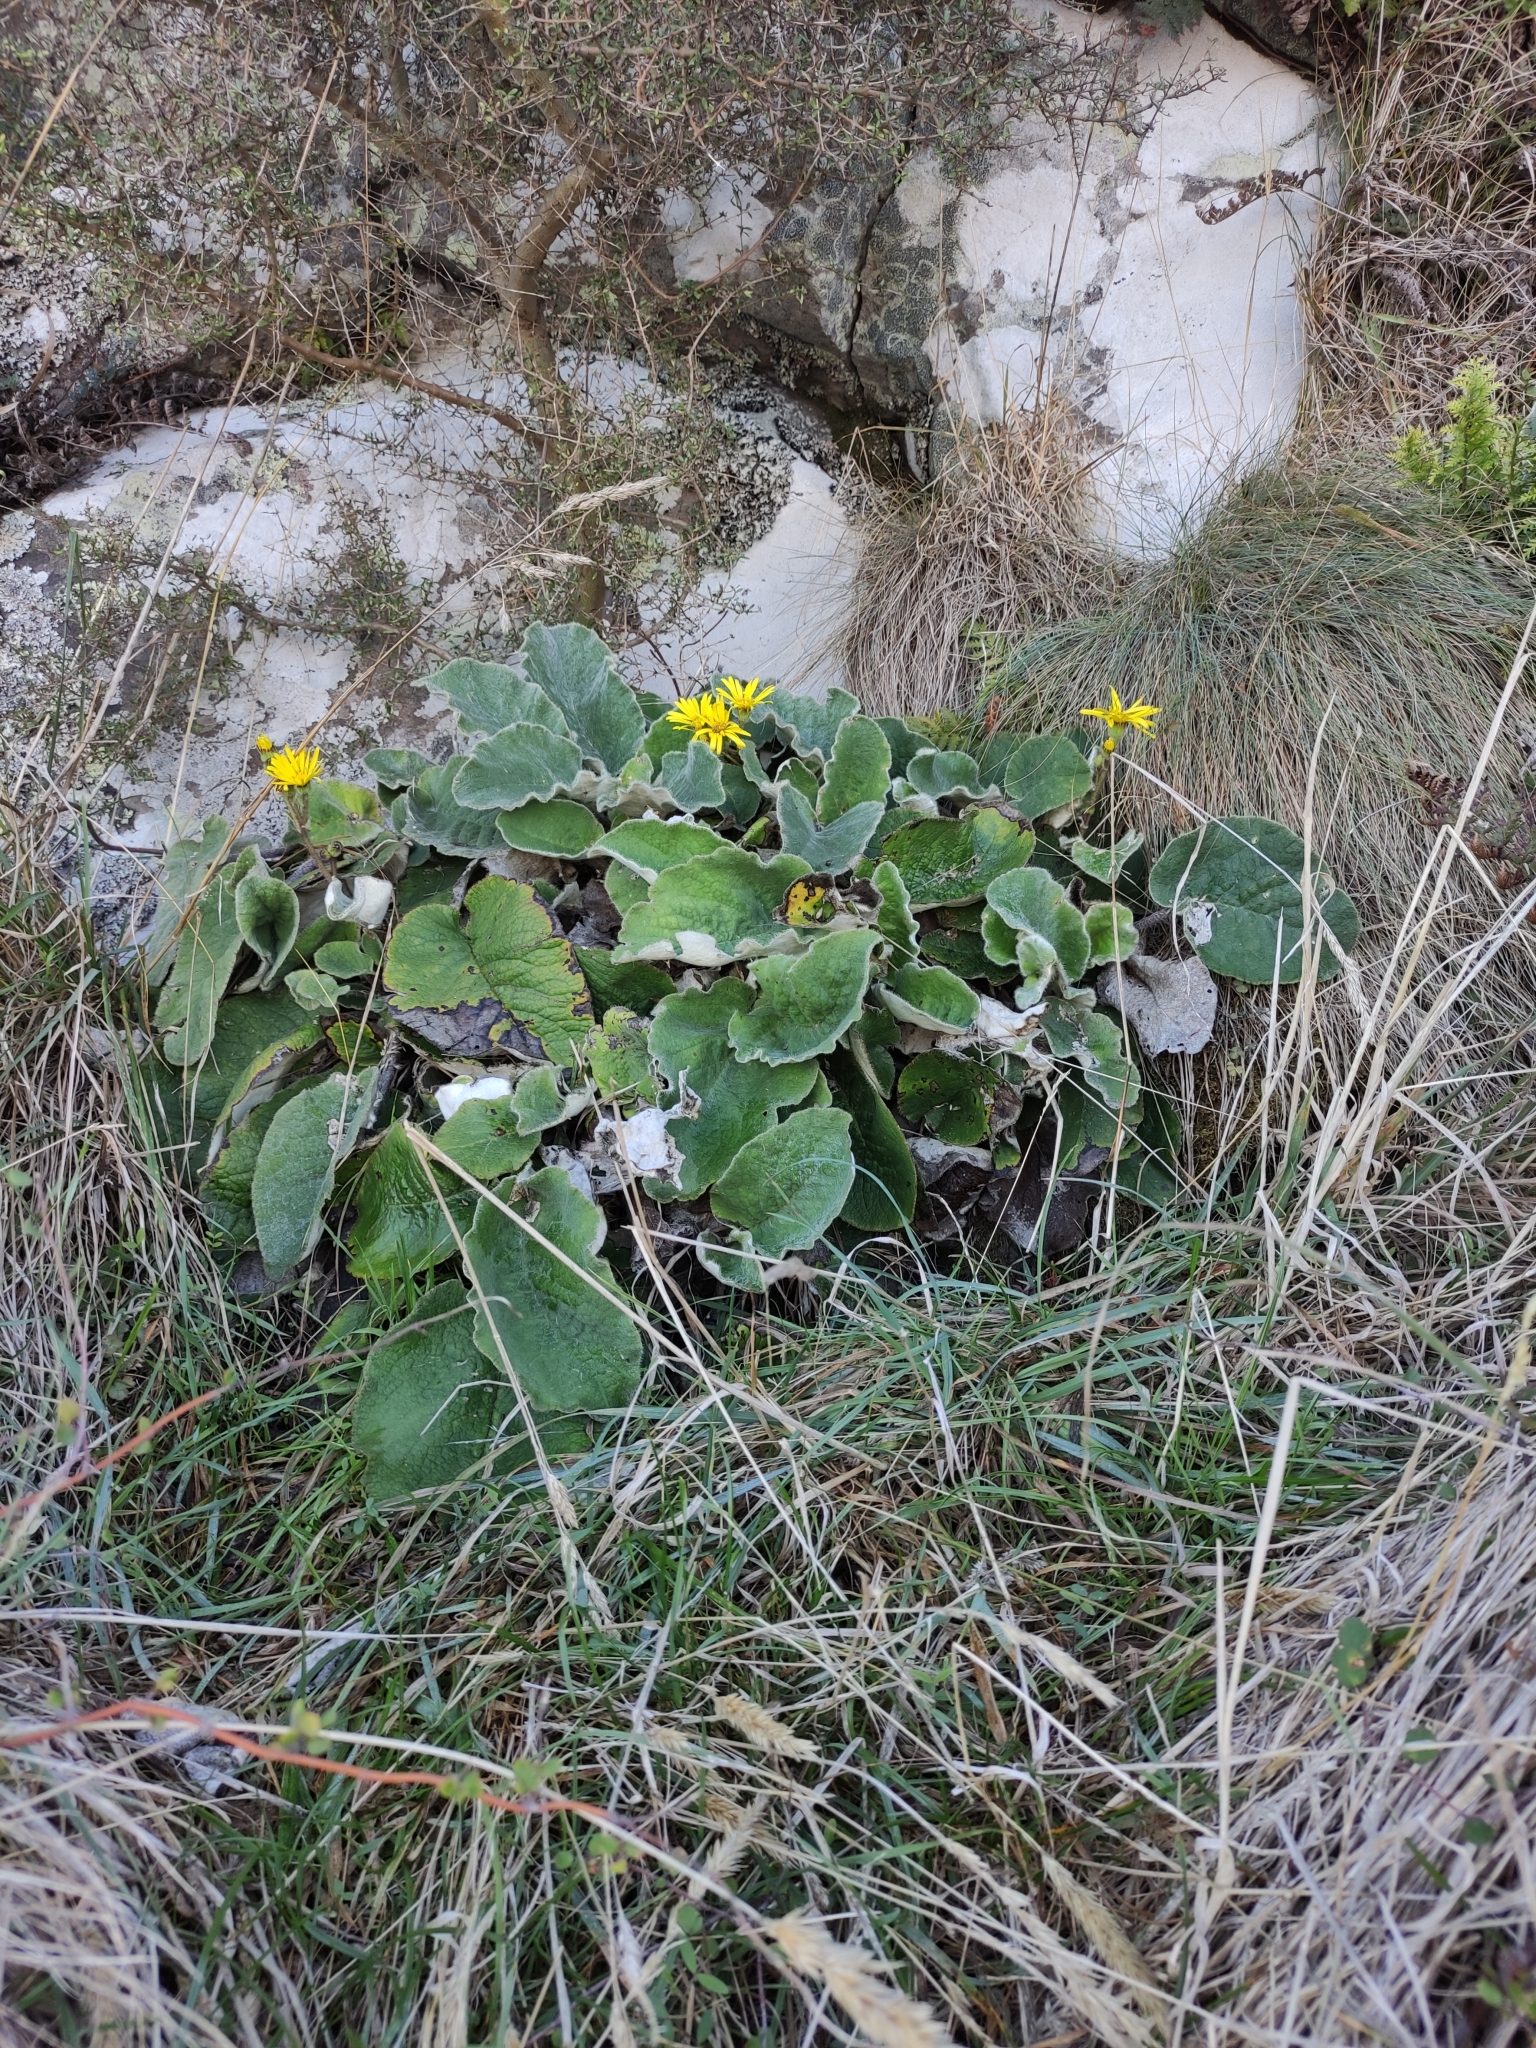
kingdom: Plantae
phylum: Tracheophyta
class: Magnoliopsida
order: Asterales
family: Asteraceae
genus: Brachyglottis
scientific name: Brachyglottis lagopus
